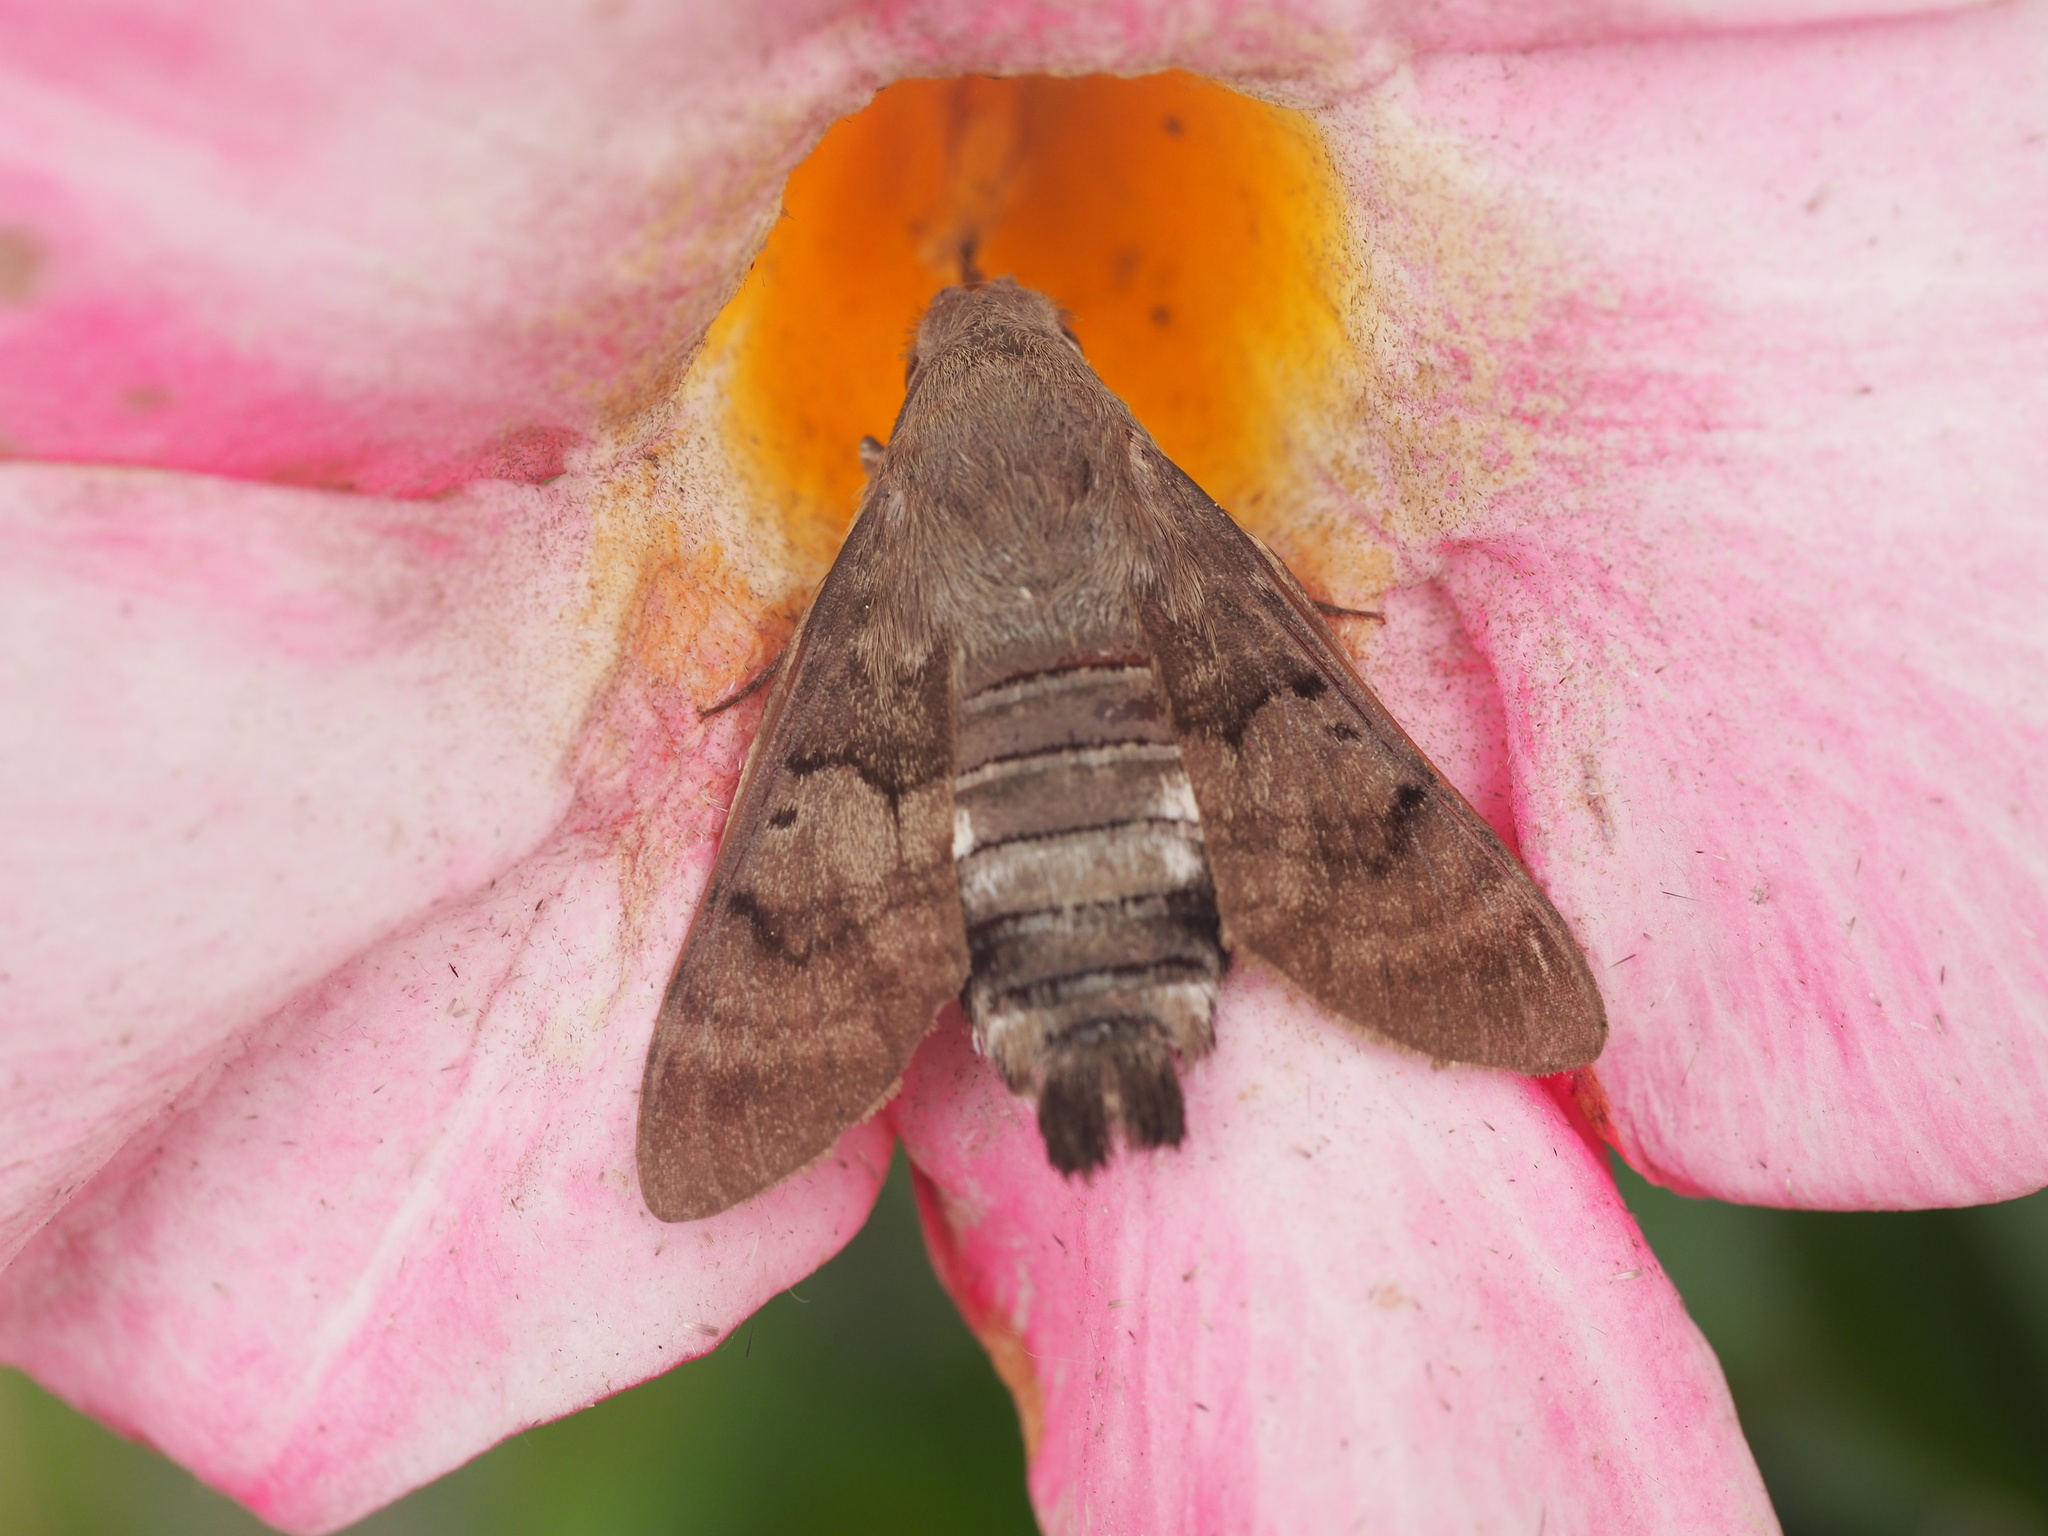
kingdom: Animalia
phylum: Arthropoda
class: Insecta
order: Lepidoptera
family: Sphingidae
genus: Macroglossum
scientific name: Macroglossum stellatarum
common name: Humming-bird hawk-moth
